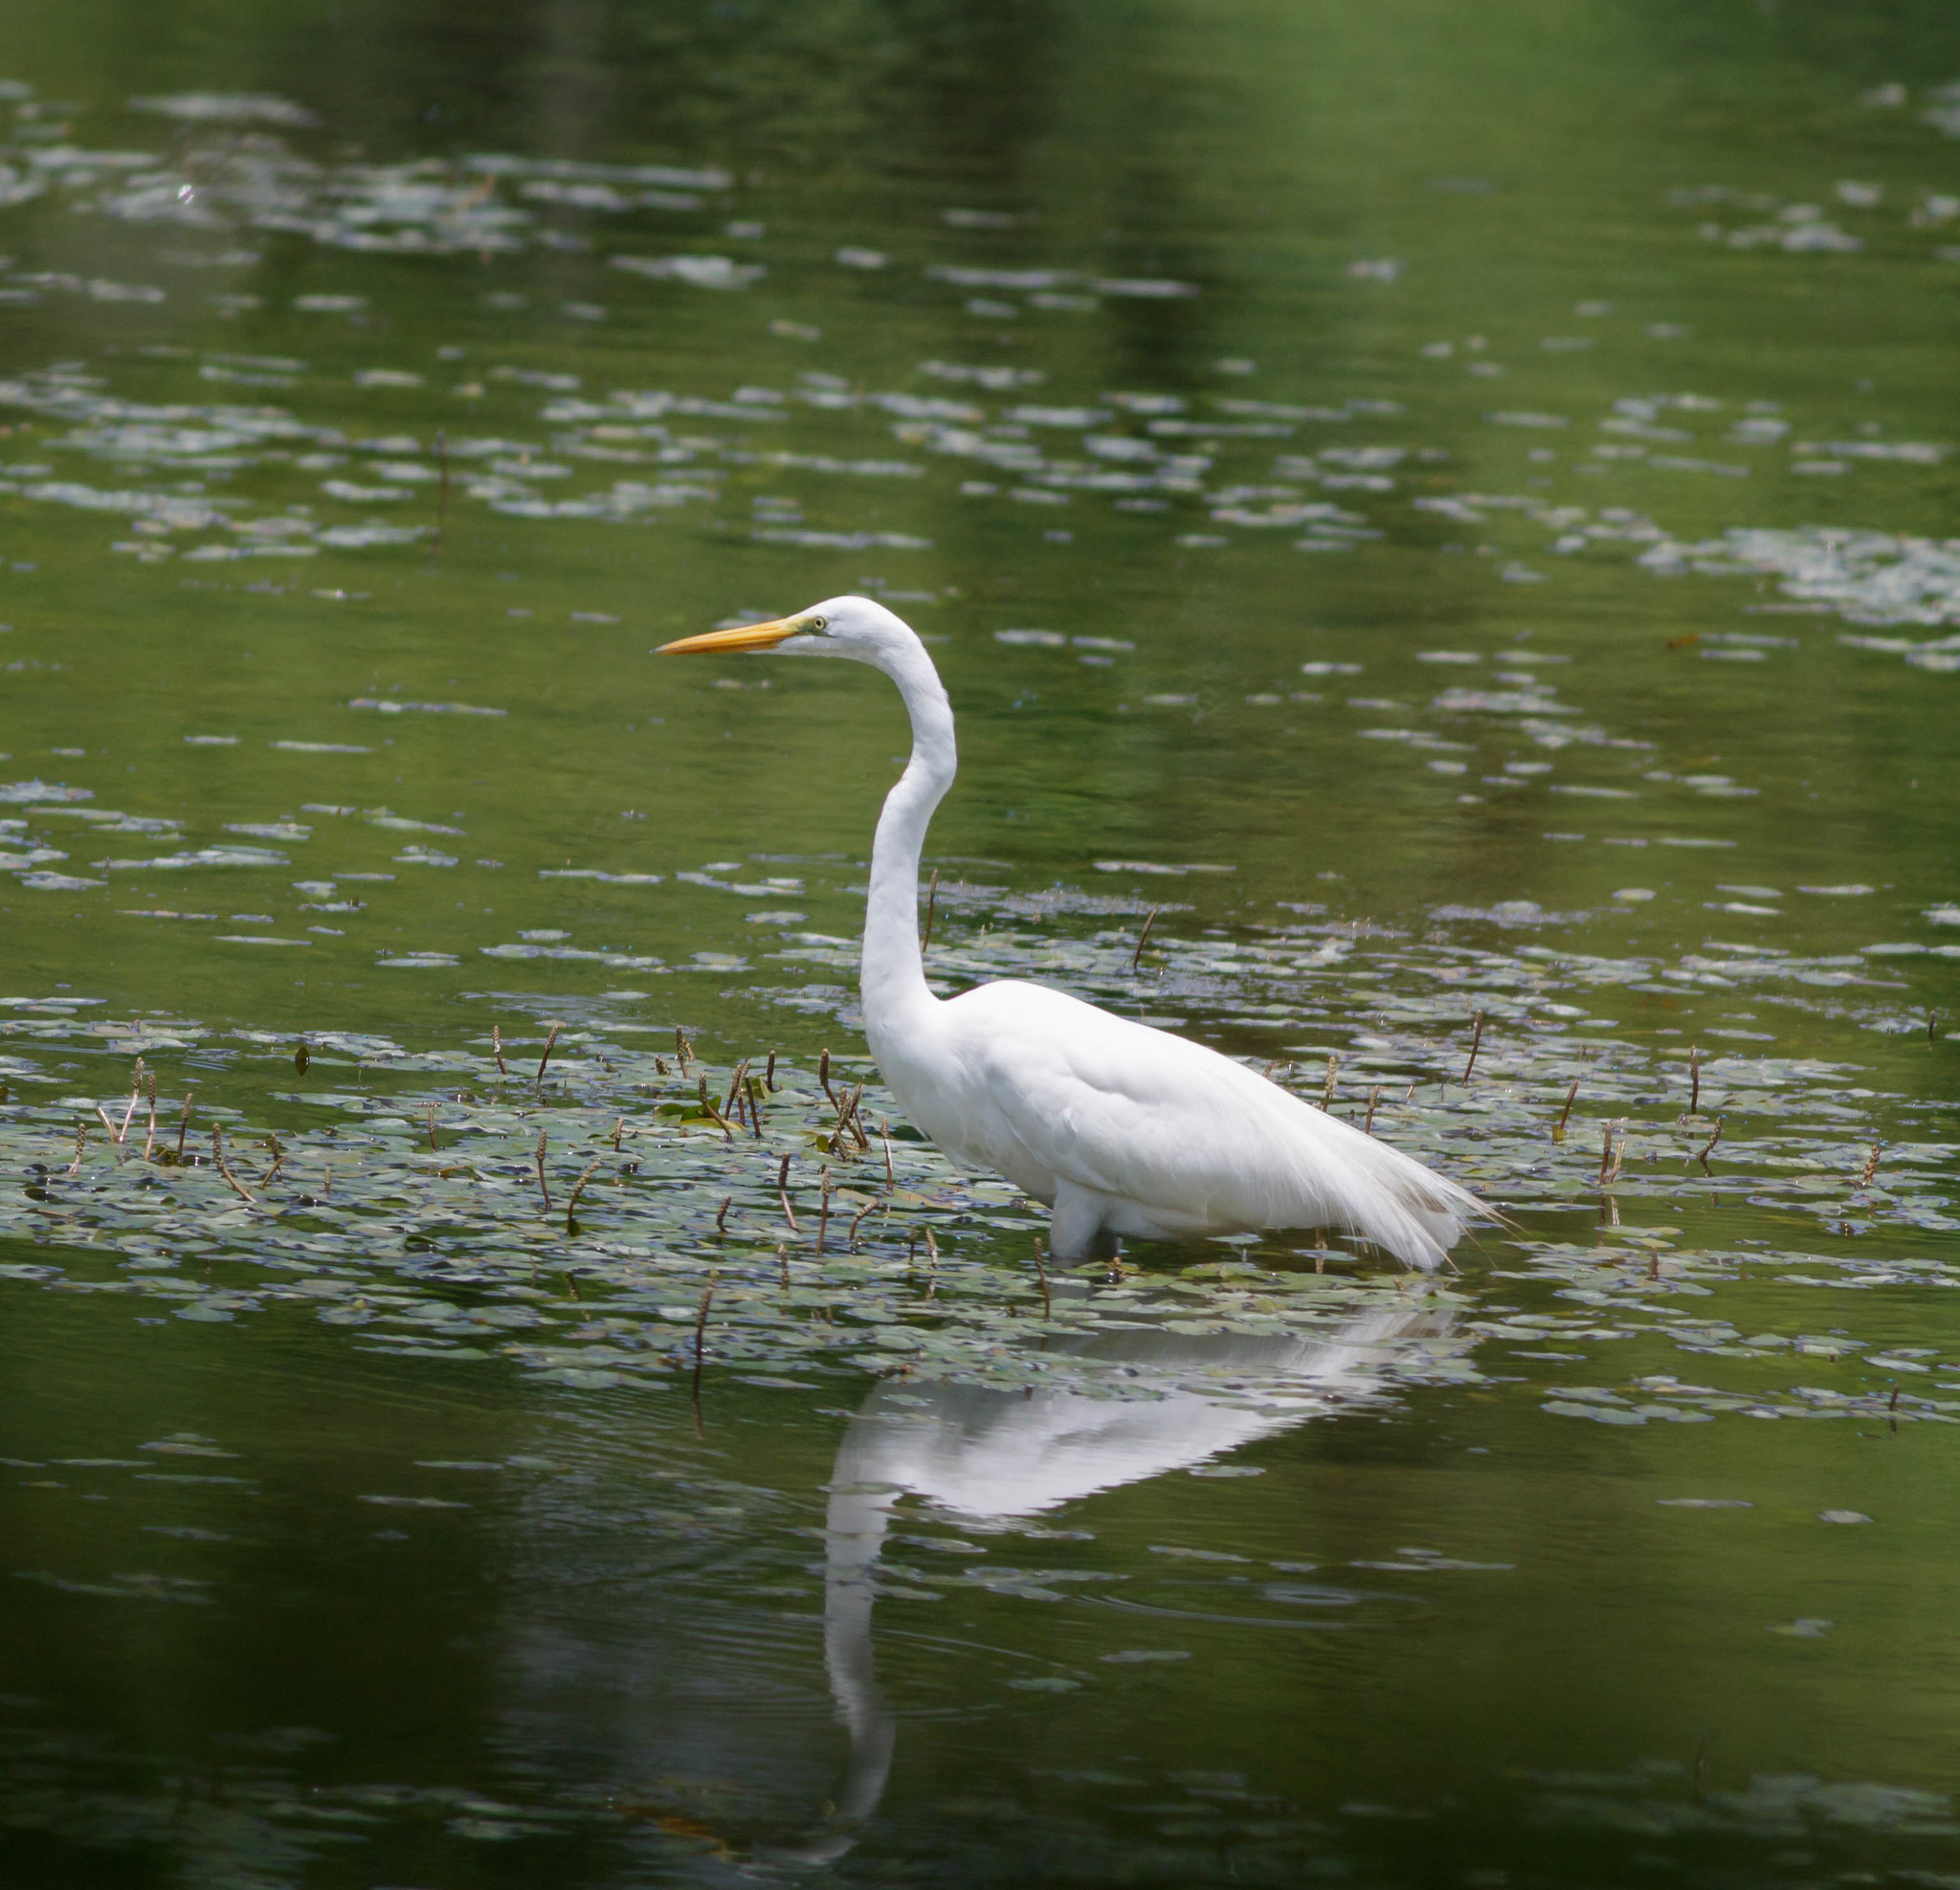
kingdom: Animalia
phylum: Chordata
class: Aves
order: Pelecaniformes
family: Ardeidae
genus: Ardea
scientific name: Ardea alba
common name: Great egret
